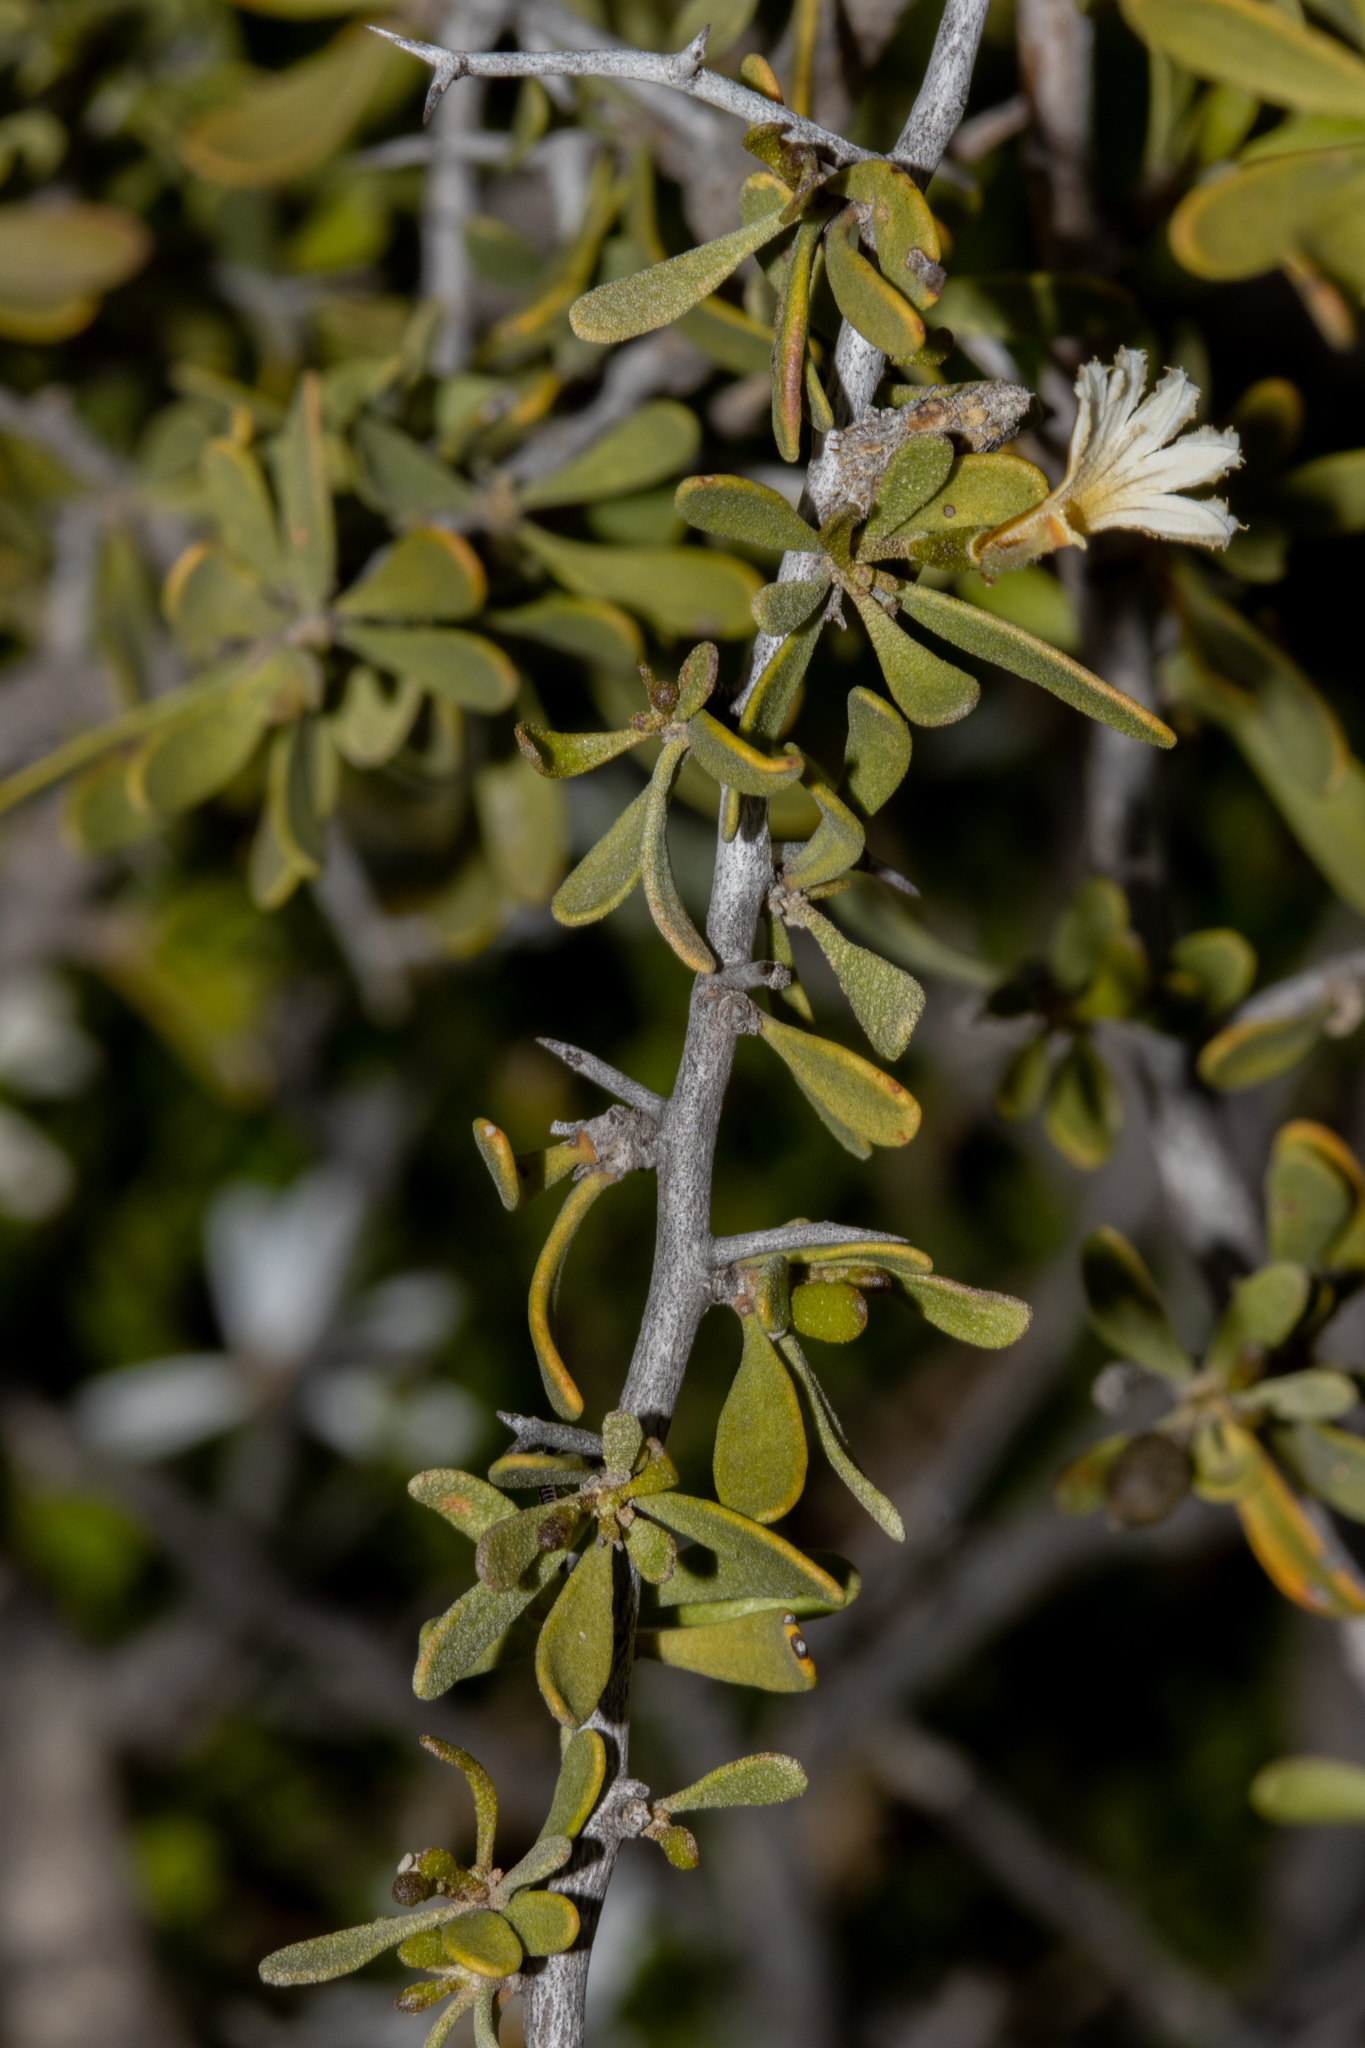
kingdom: Plantae
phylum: Tracheophyta
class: Magnoliopsida
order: Asterales
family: Goodeniaceae
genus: Scaevola
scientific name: Scaevola spinescens
